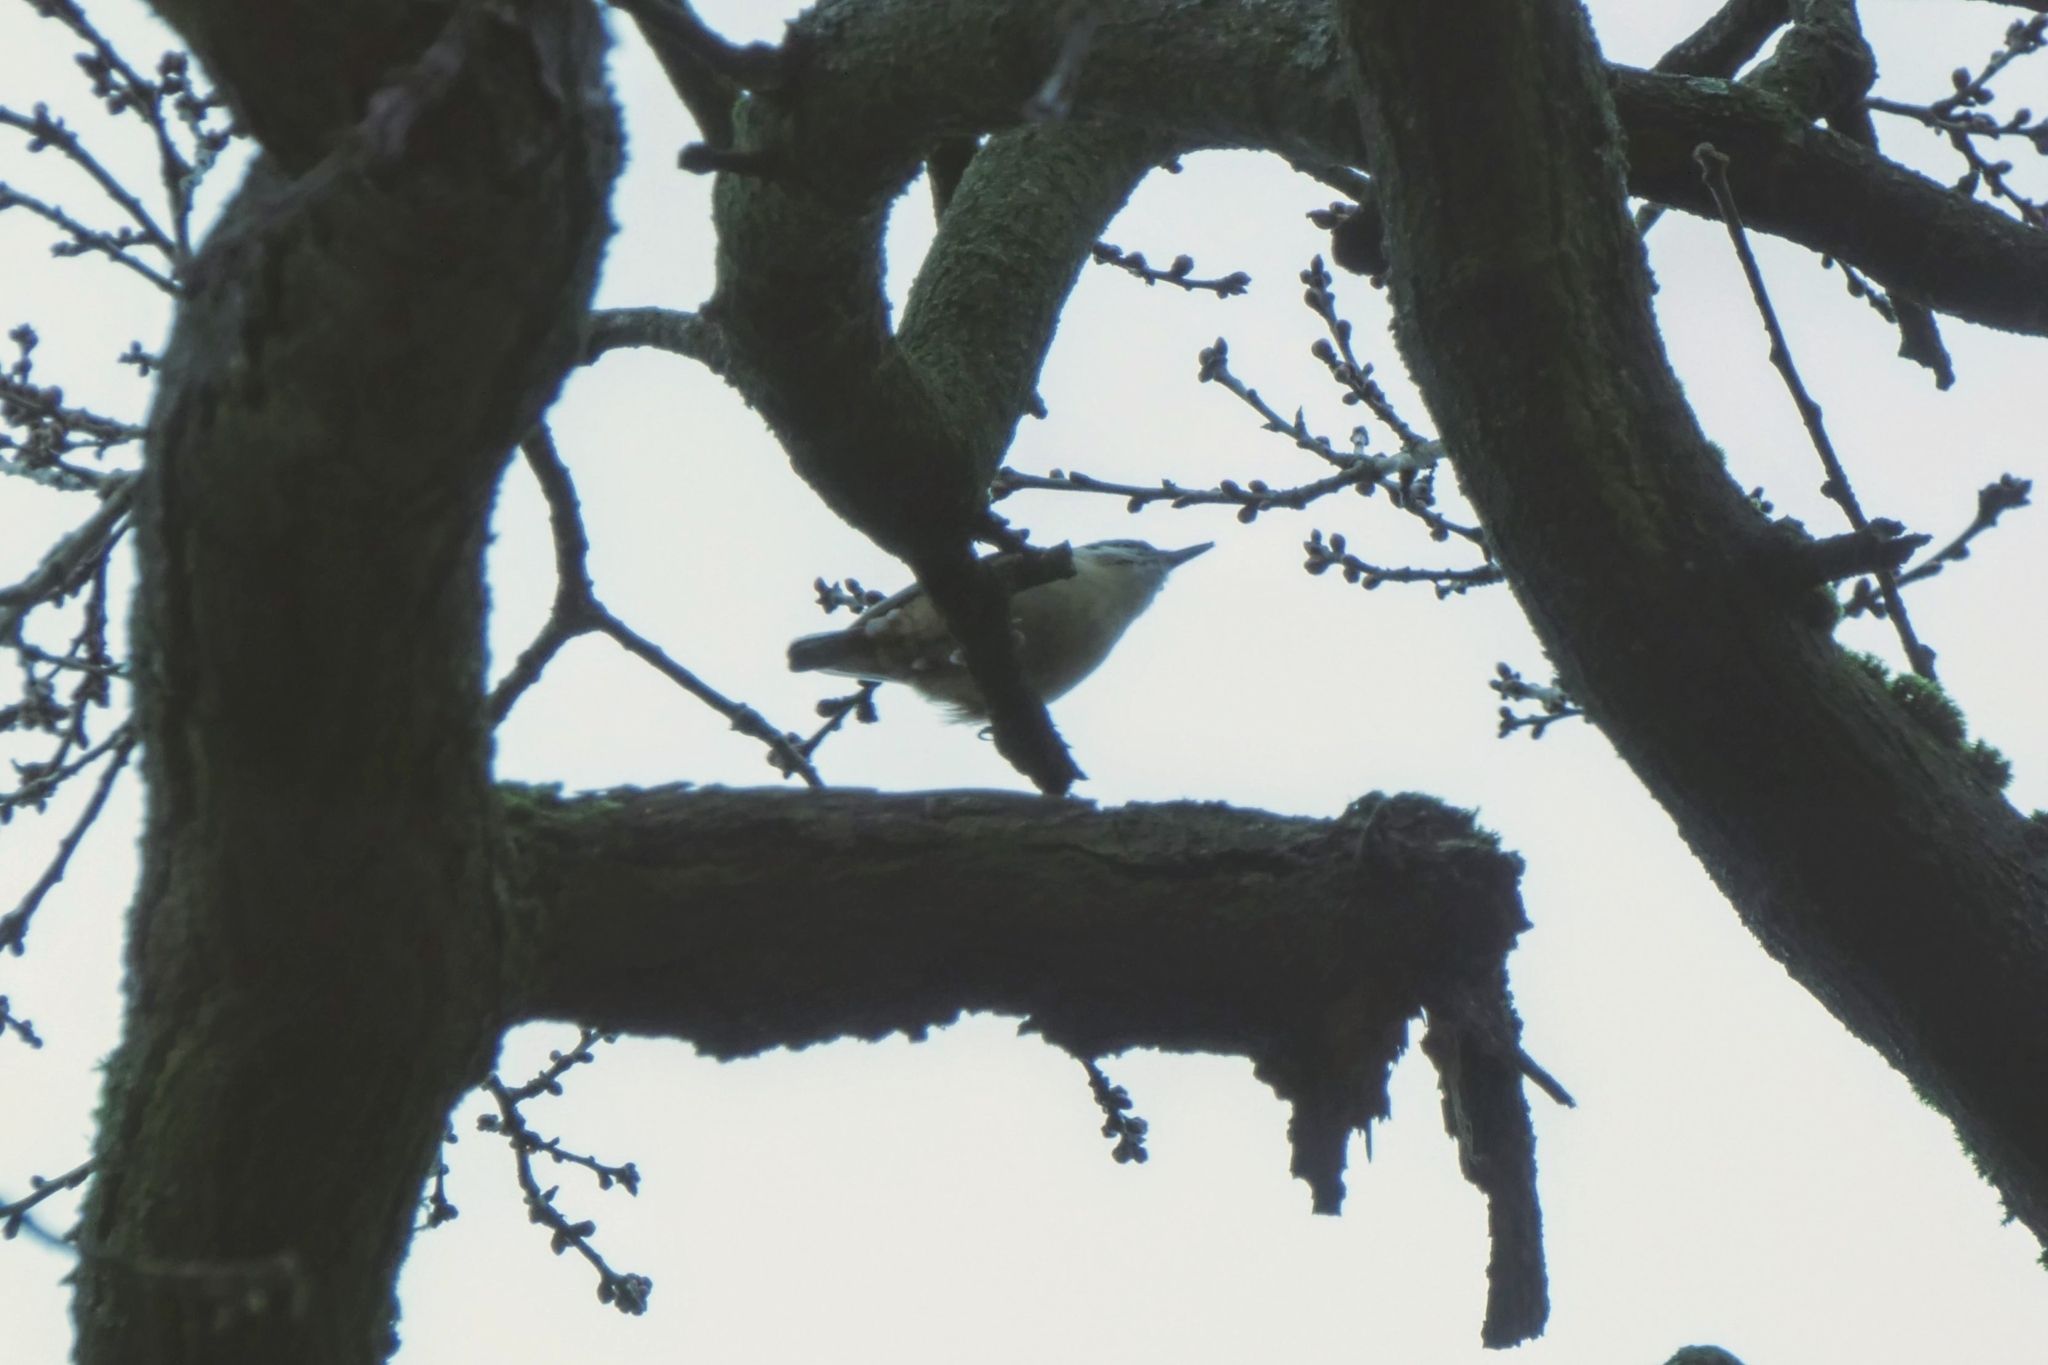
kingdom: Animalia
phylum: Chordata
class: Aves
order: Passeriformes
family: Sittidae
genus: Sitta
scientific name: Sitta europaea
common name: Eurasian nuthatch
